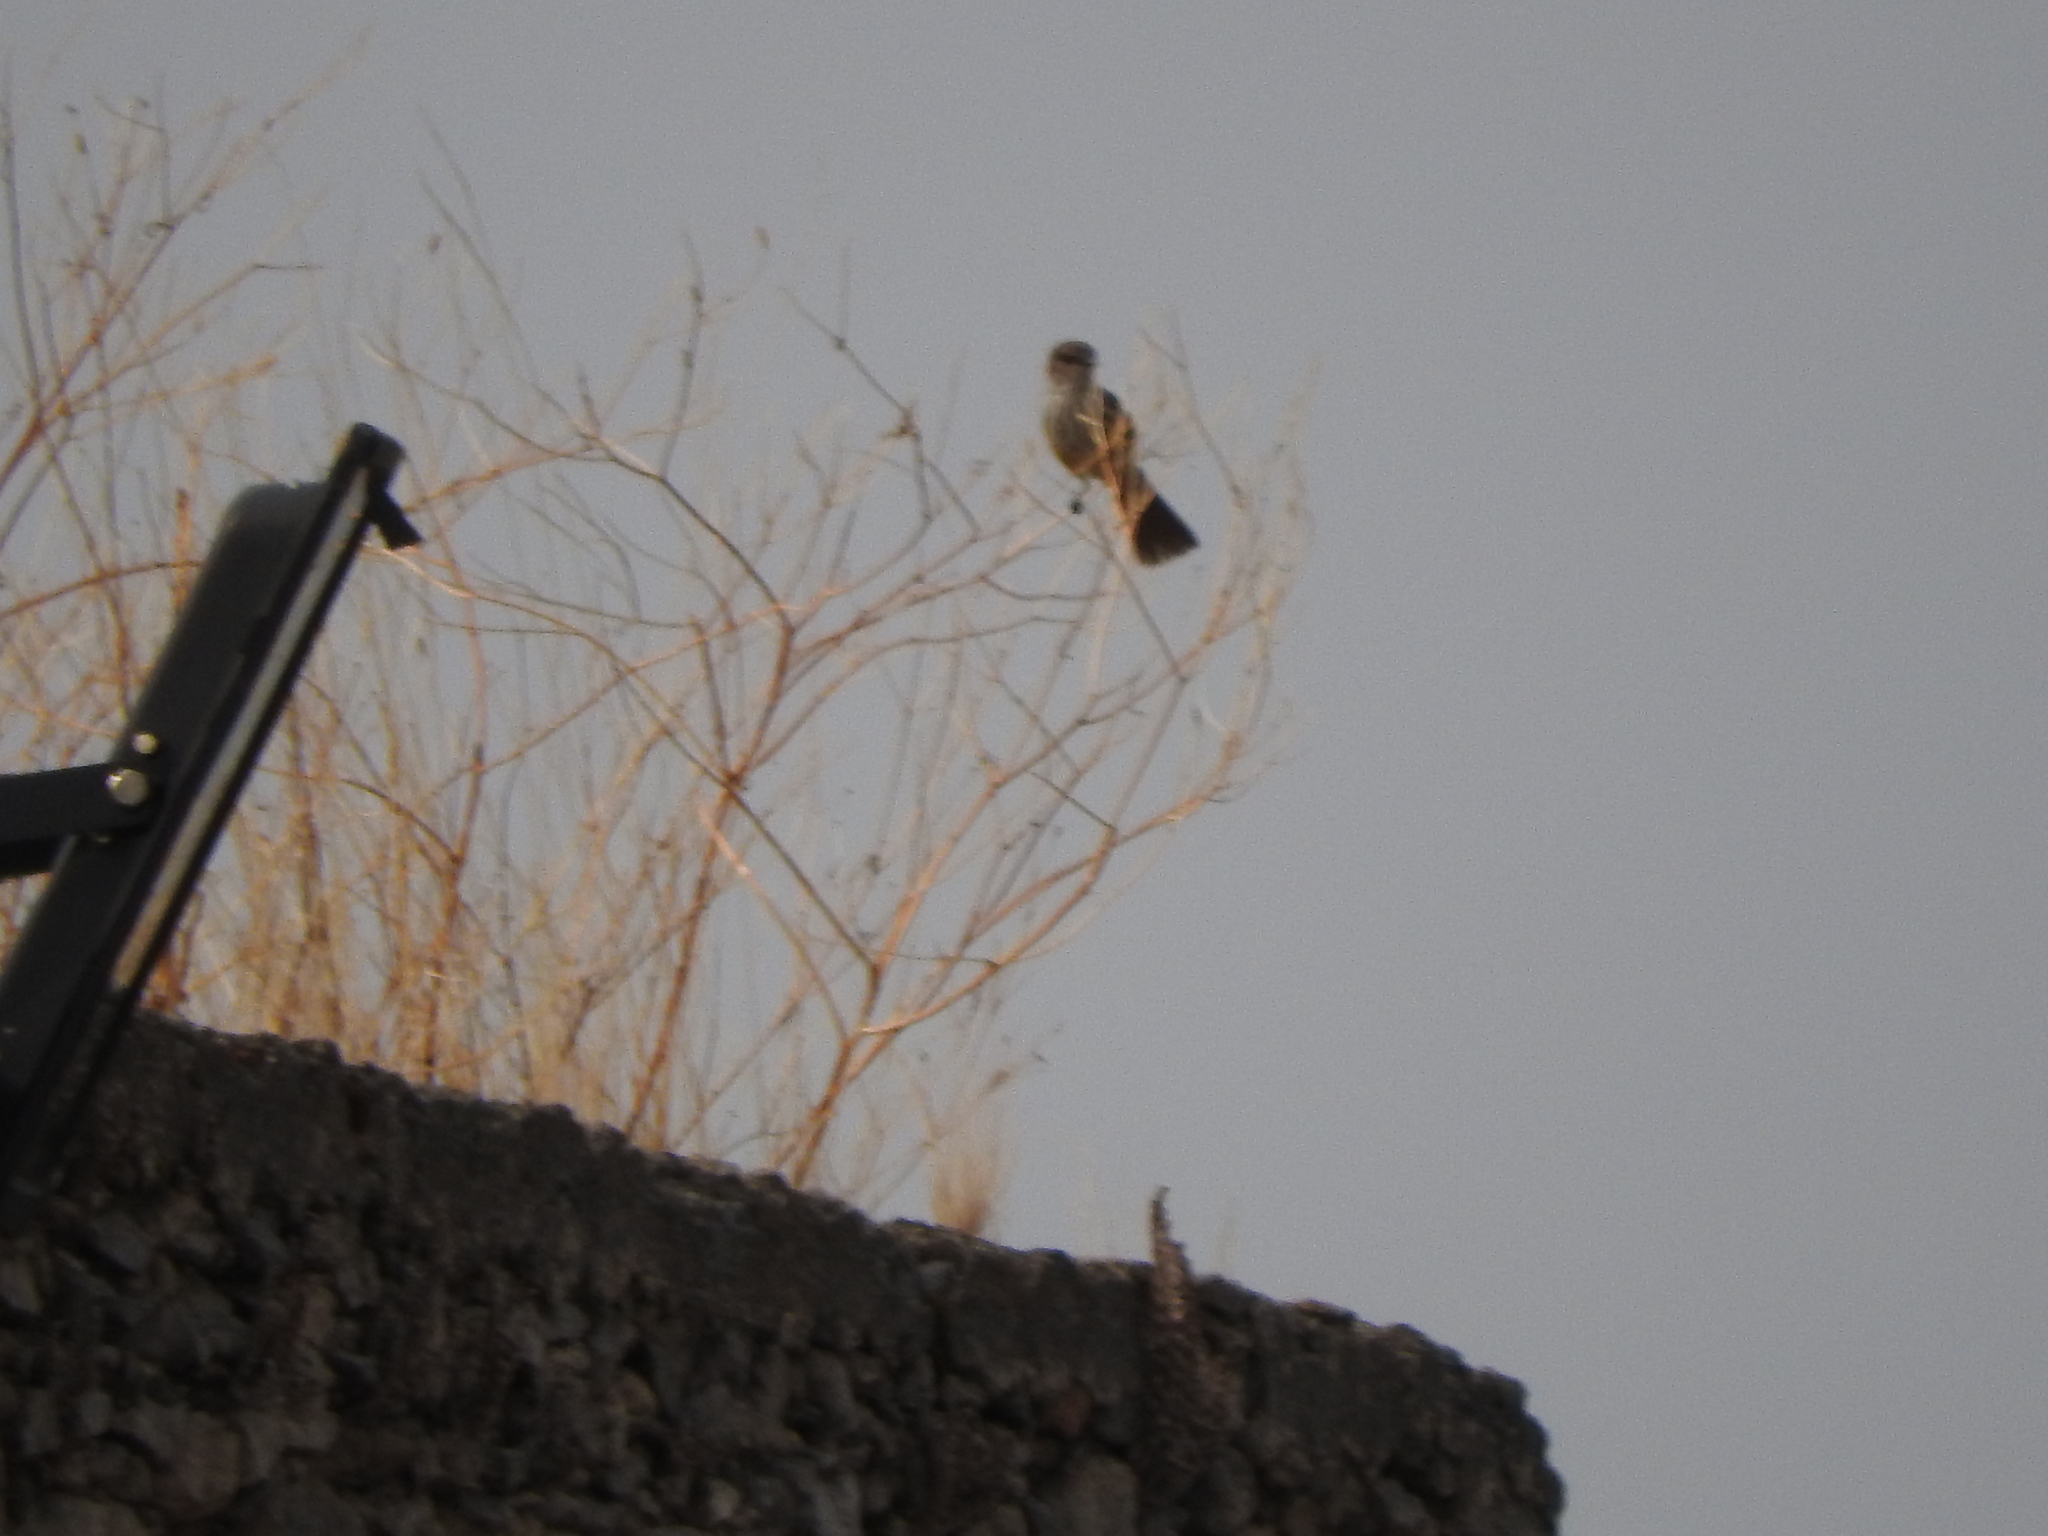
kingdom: Animalia
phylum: Chordata
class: Aves
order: Passeriformes
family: Tyrannidae
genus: Pyrocephalus
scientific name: Pyrocephalus rubinus
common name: Vermilion flycatcher
